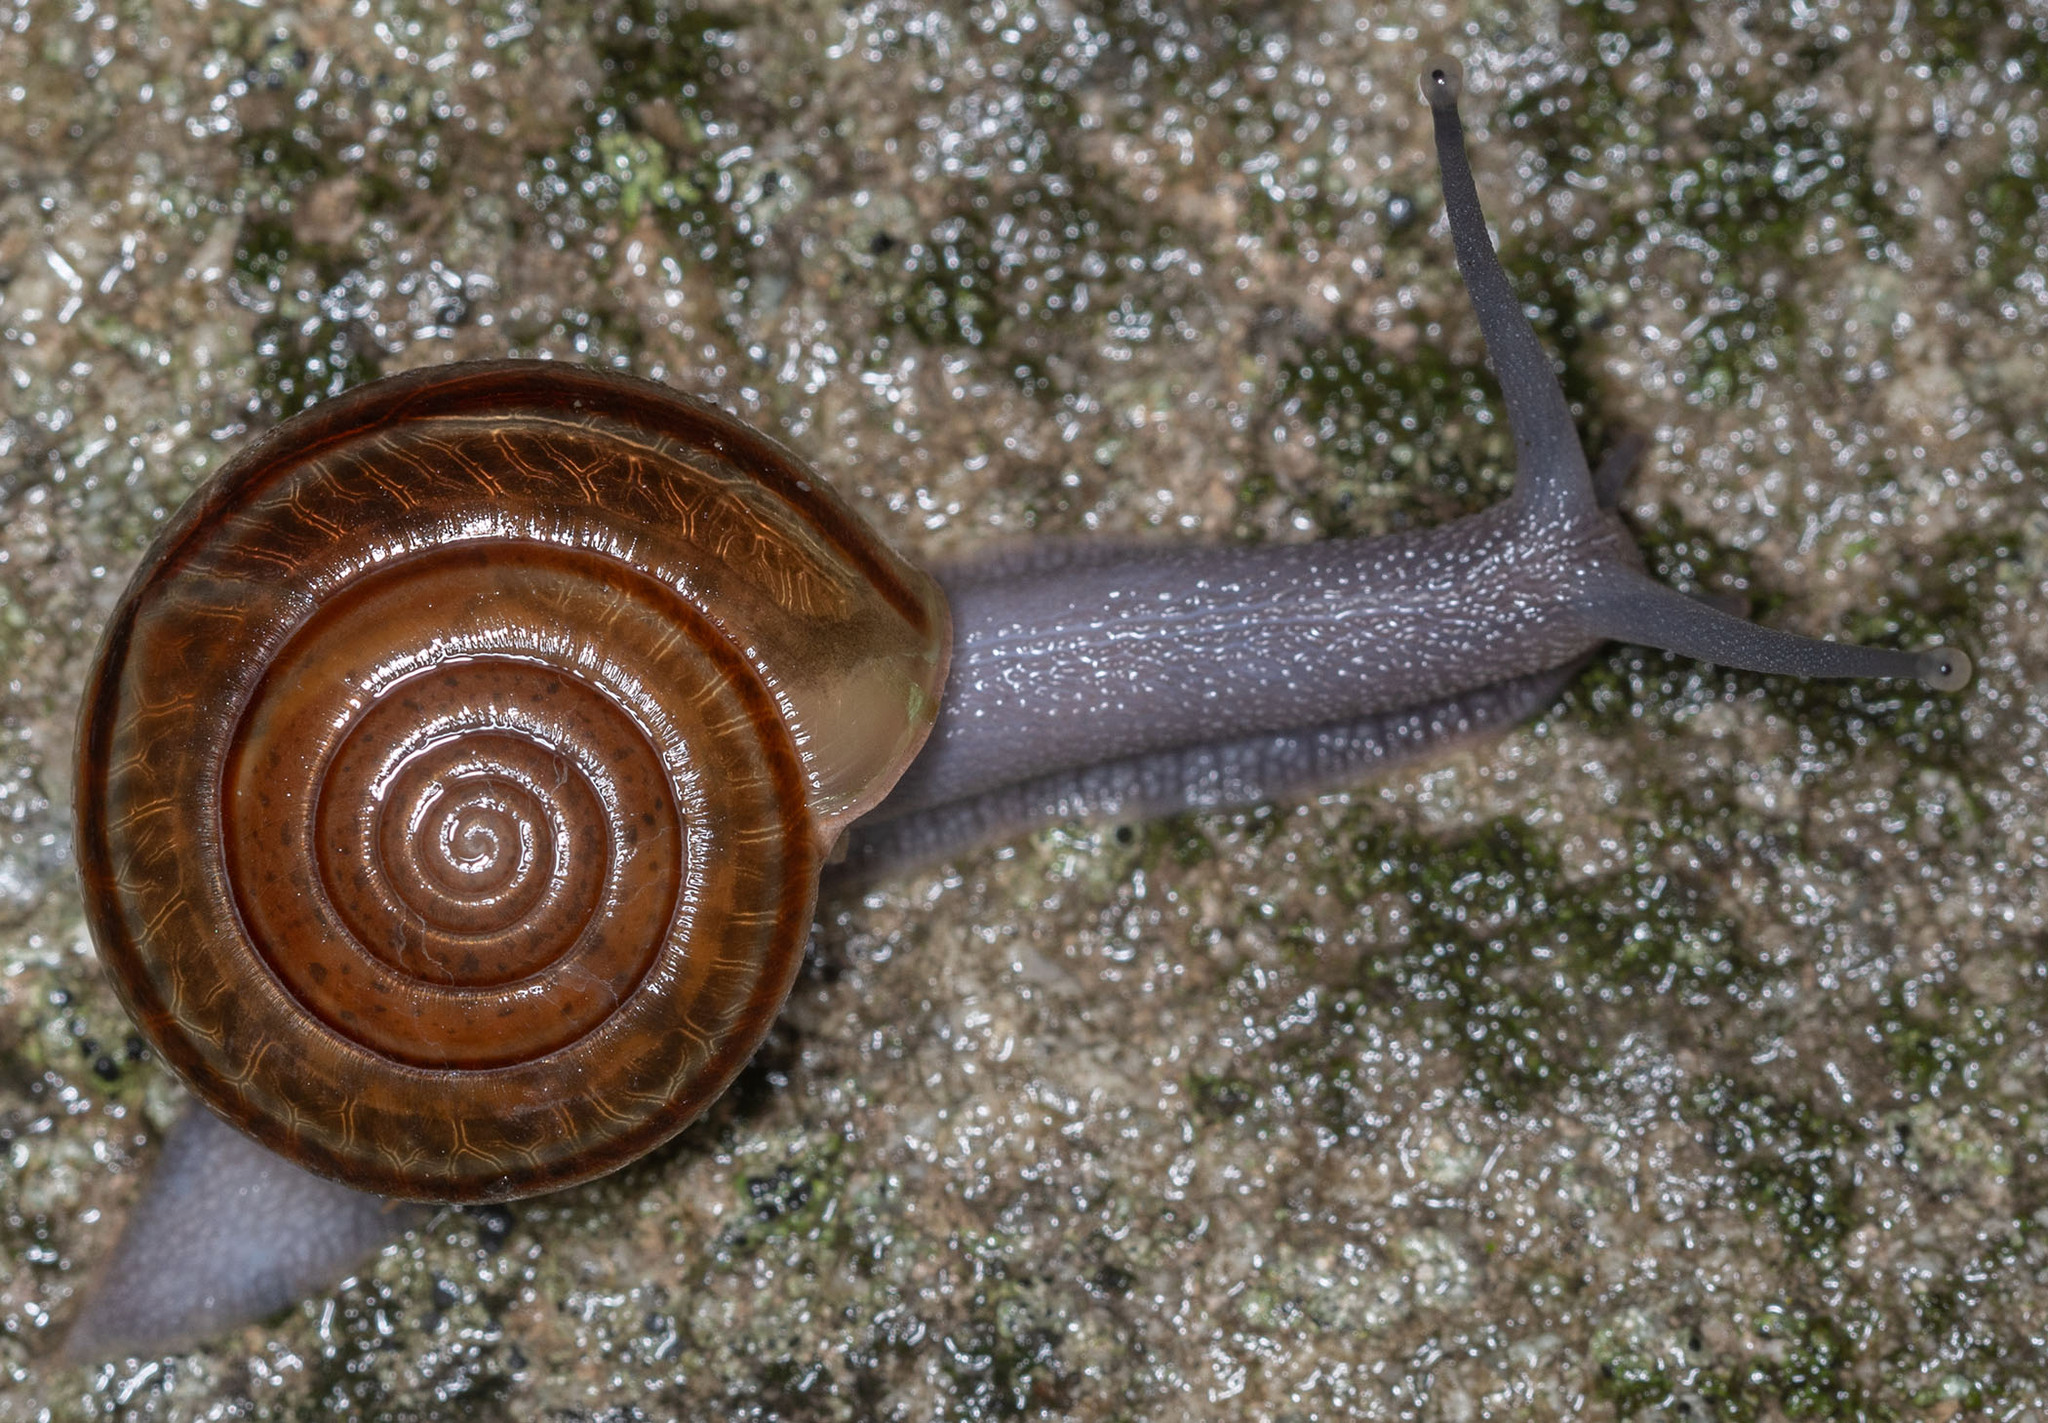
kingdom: Animalia
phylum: Mollusca
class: Gastropoda
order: Stylommatophora
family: Xanthonychidae
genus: Helminthoglypta
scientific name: Helminthoglypta benitoensis
